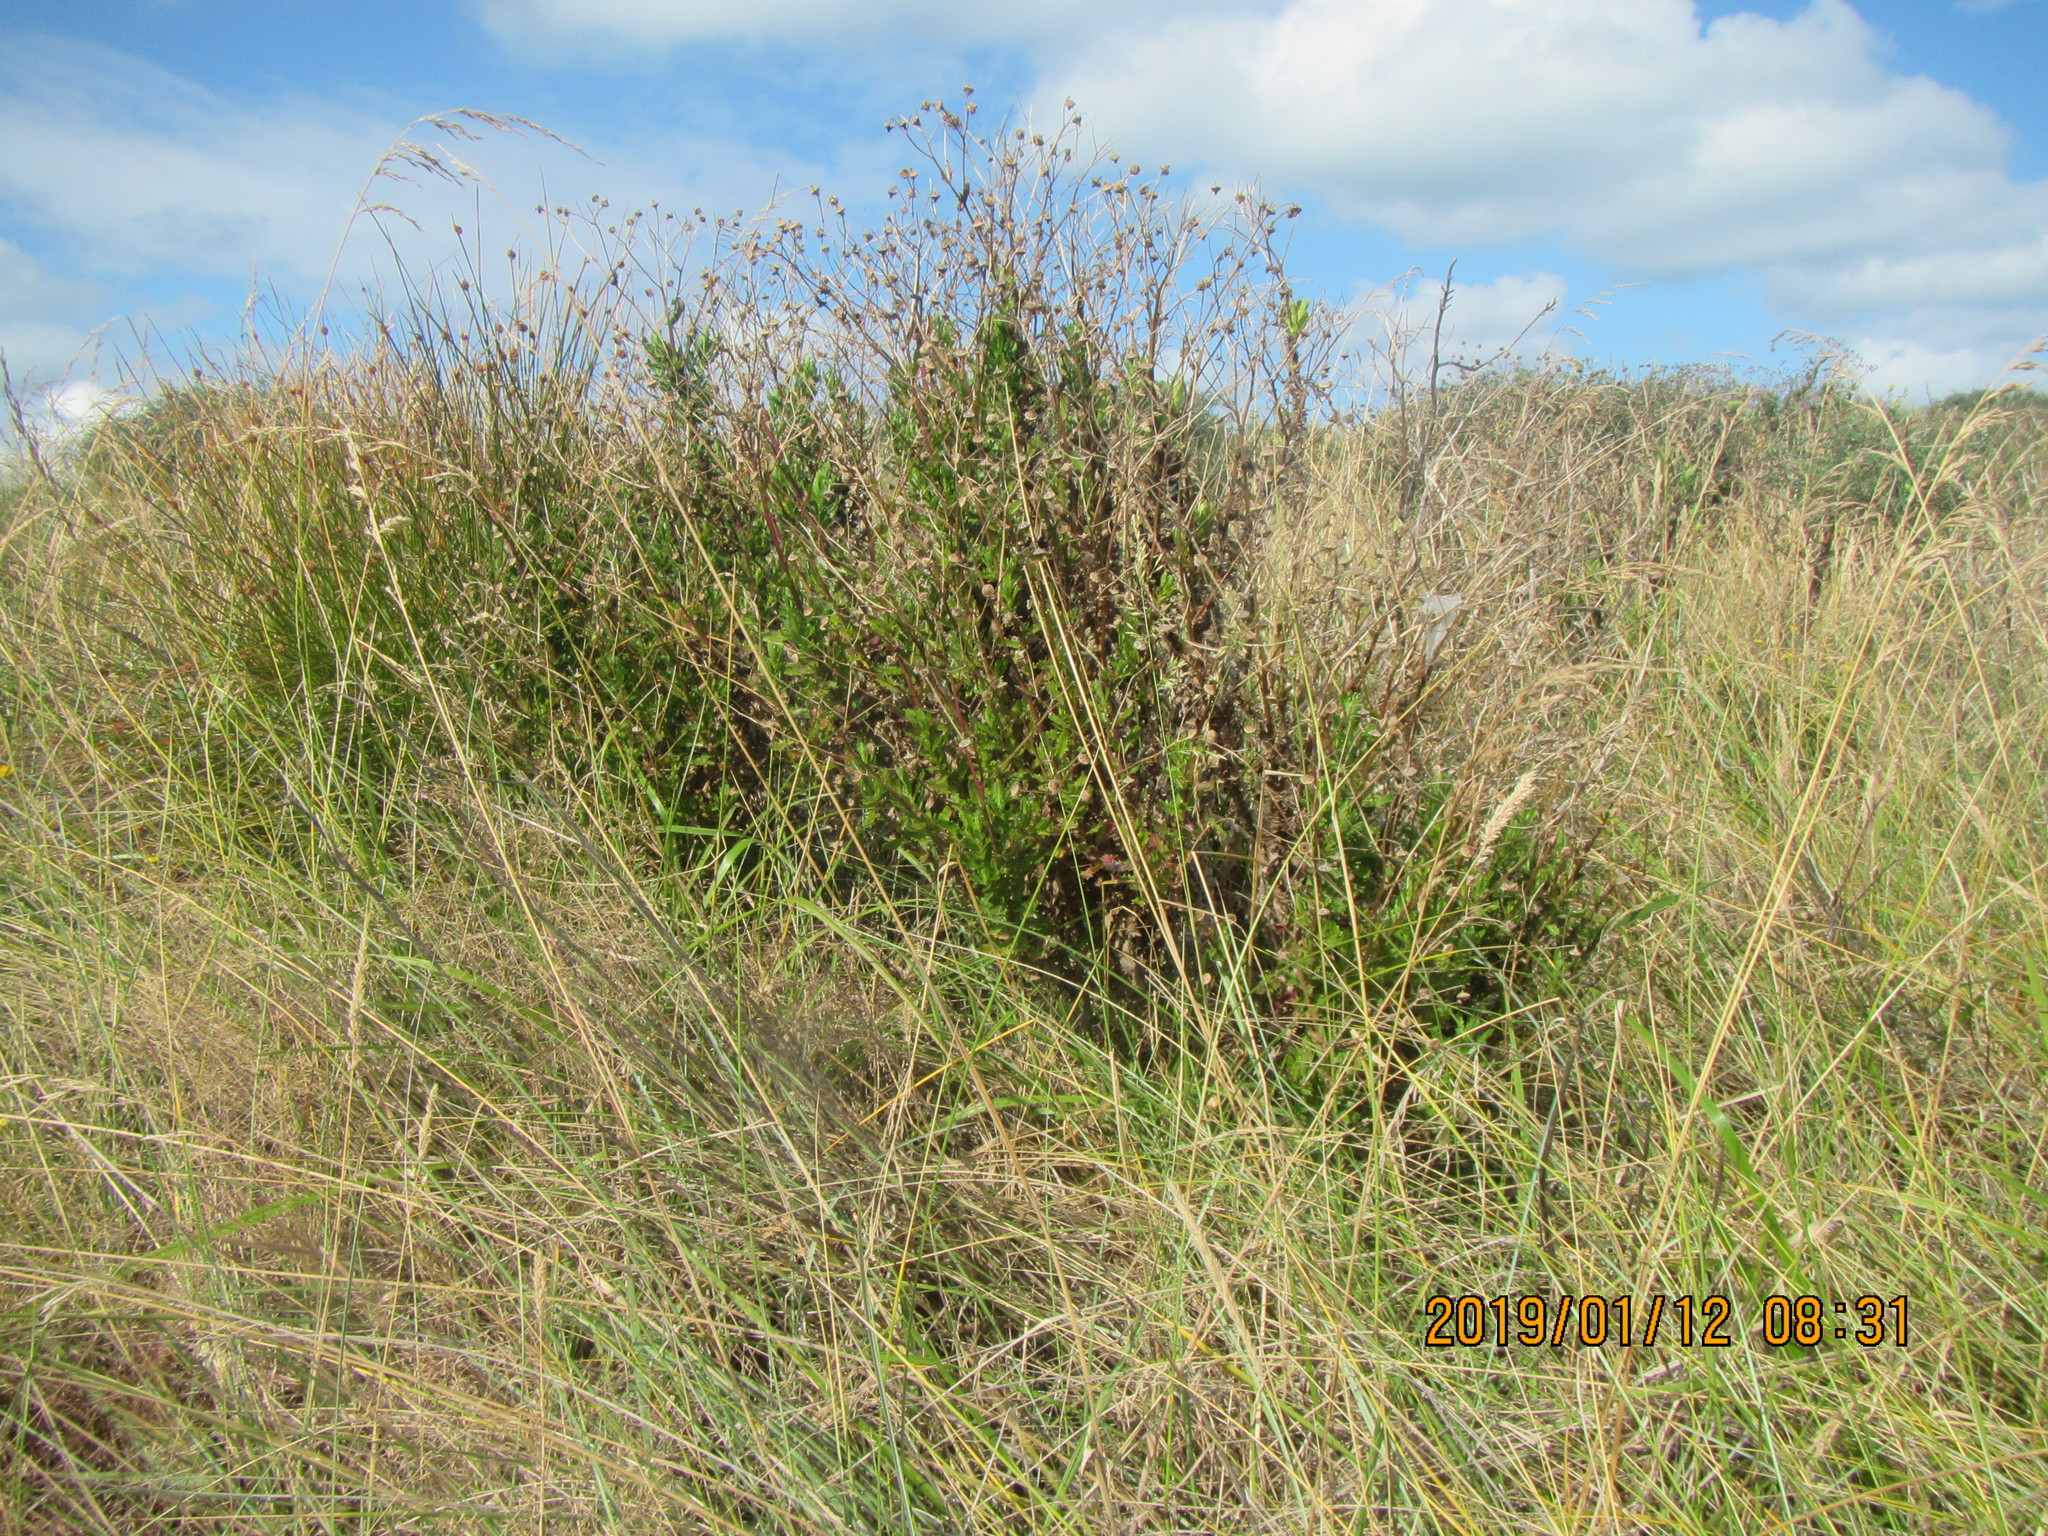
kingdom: Plantae
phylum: Tracheophyta
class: Magnoliopsida
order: Asterales
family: Asteraceae
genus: Senecio
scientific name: Senecio glastifolius
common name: Woad-leaved ragwort
